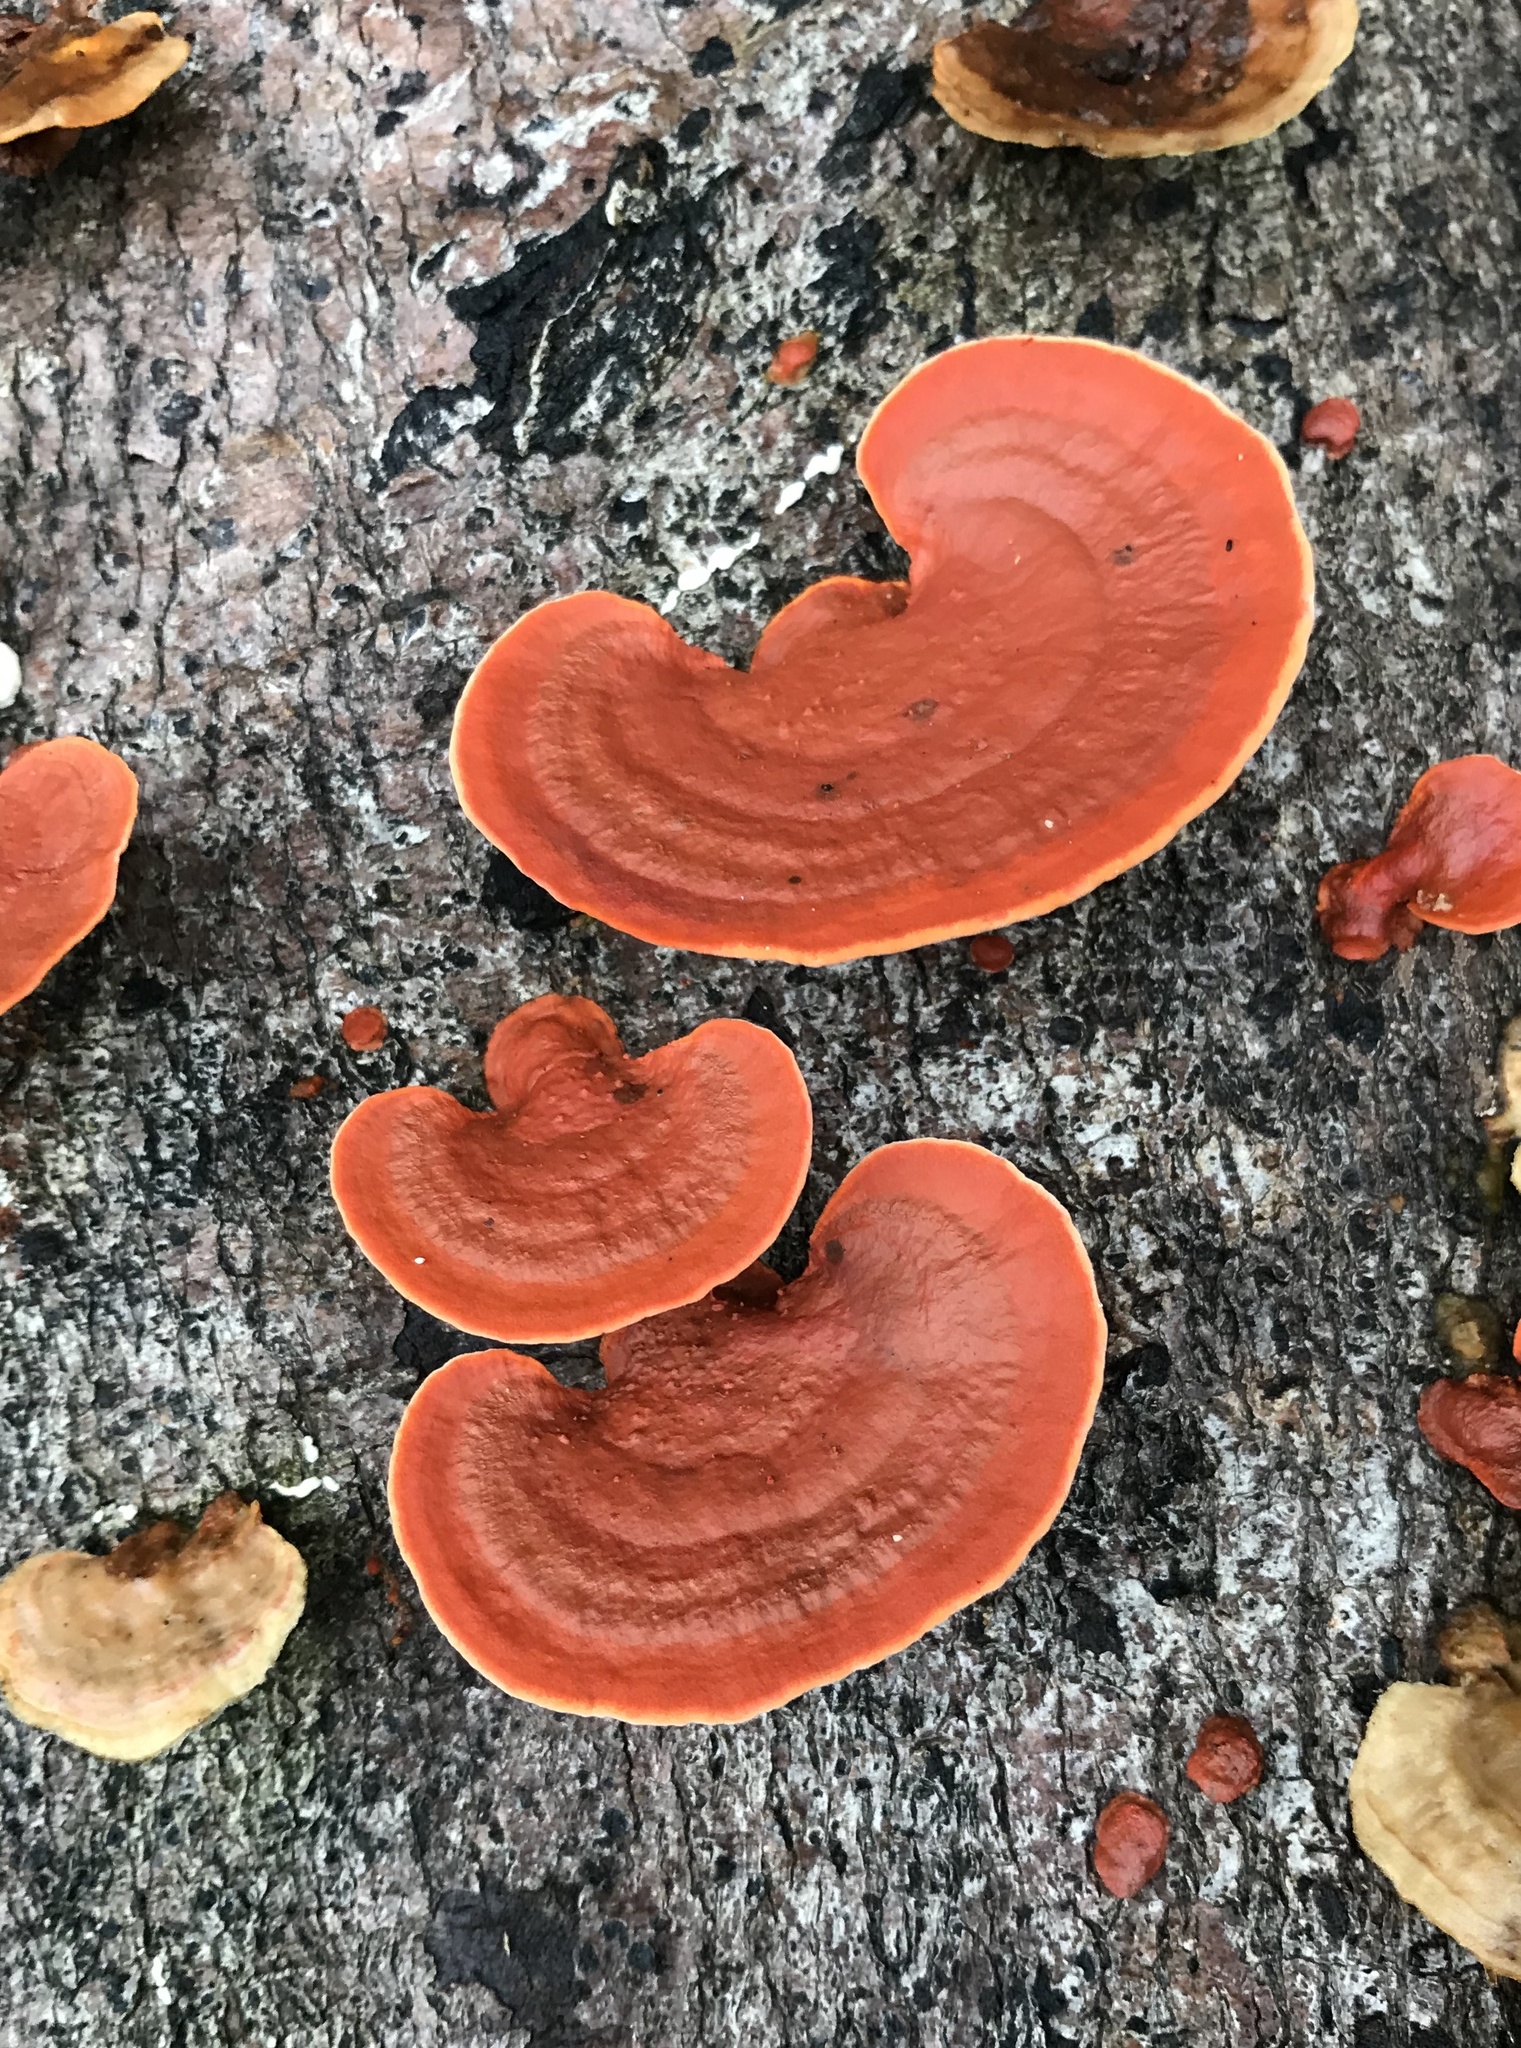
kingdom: Fungi
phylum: Basidiomycota
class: Agaricomycetes
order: Polyporales
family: Polyporaceae
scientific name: Polyporaceae
